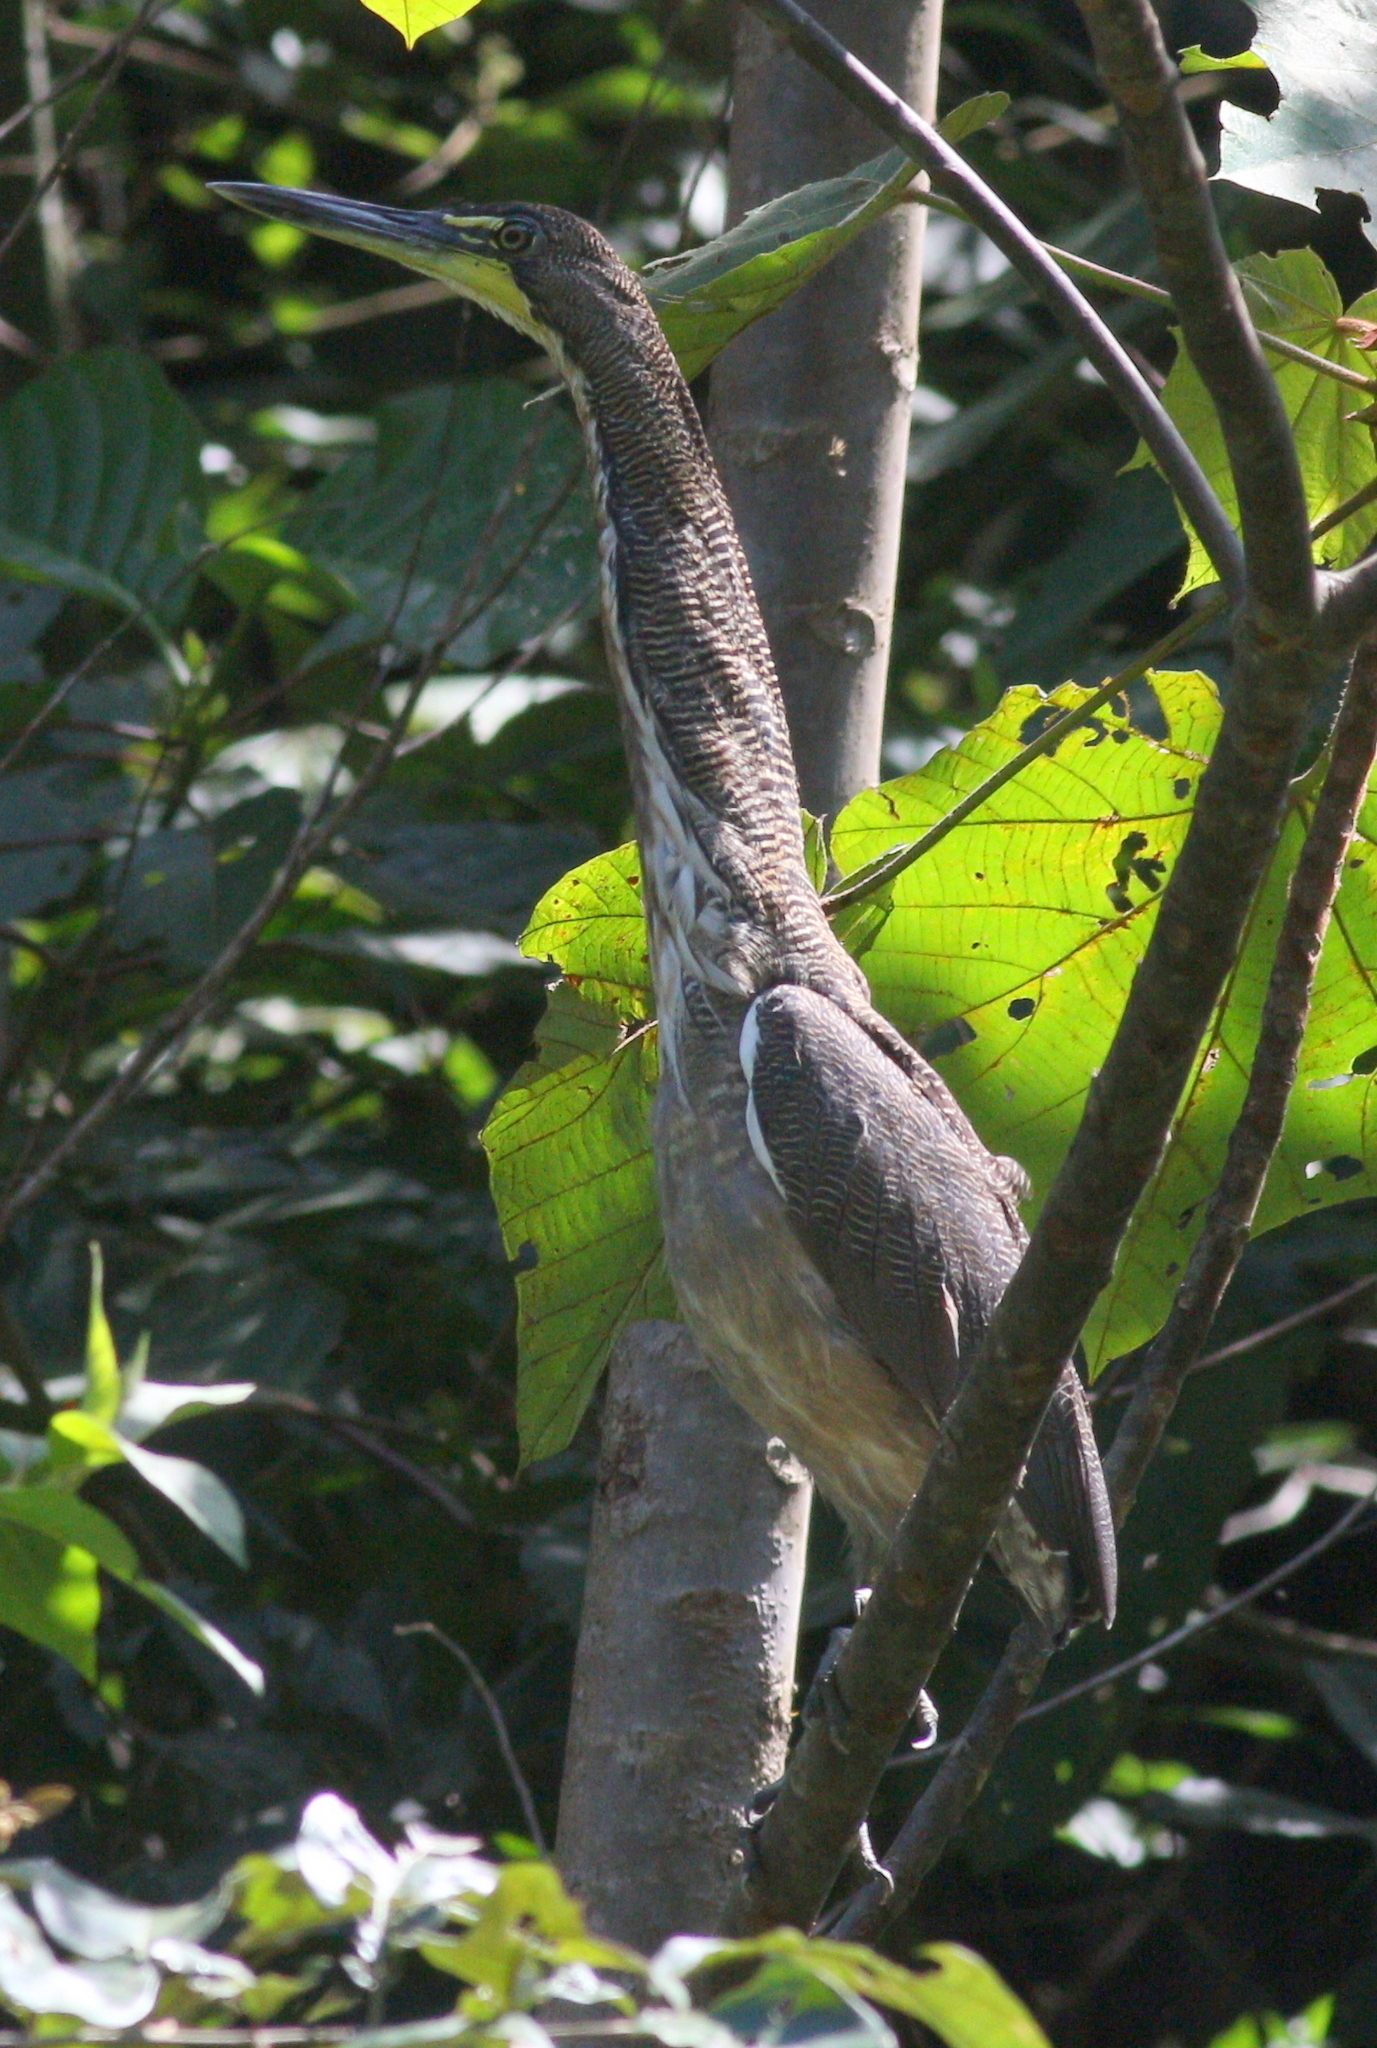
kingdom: Animalia
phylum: Chordata
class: Aves
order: Pelecaniformes
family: Ardeidae
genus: Tigrisoma
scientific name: Tigrisoma fasciatum
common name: Fasciated tiger-heron
